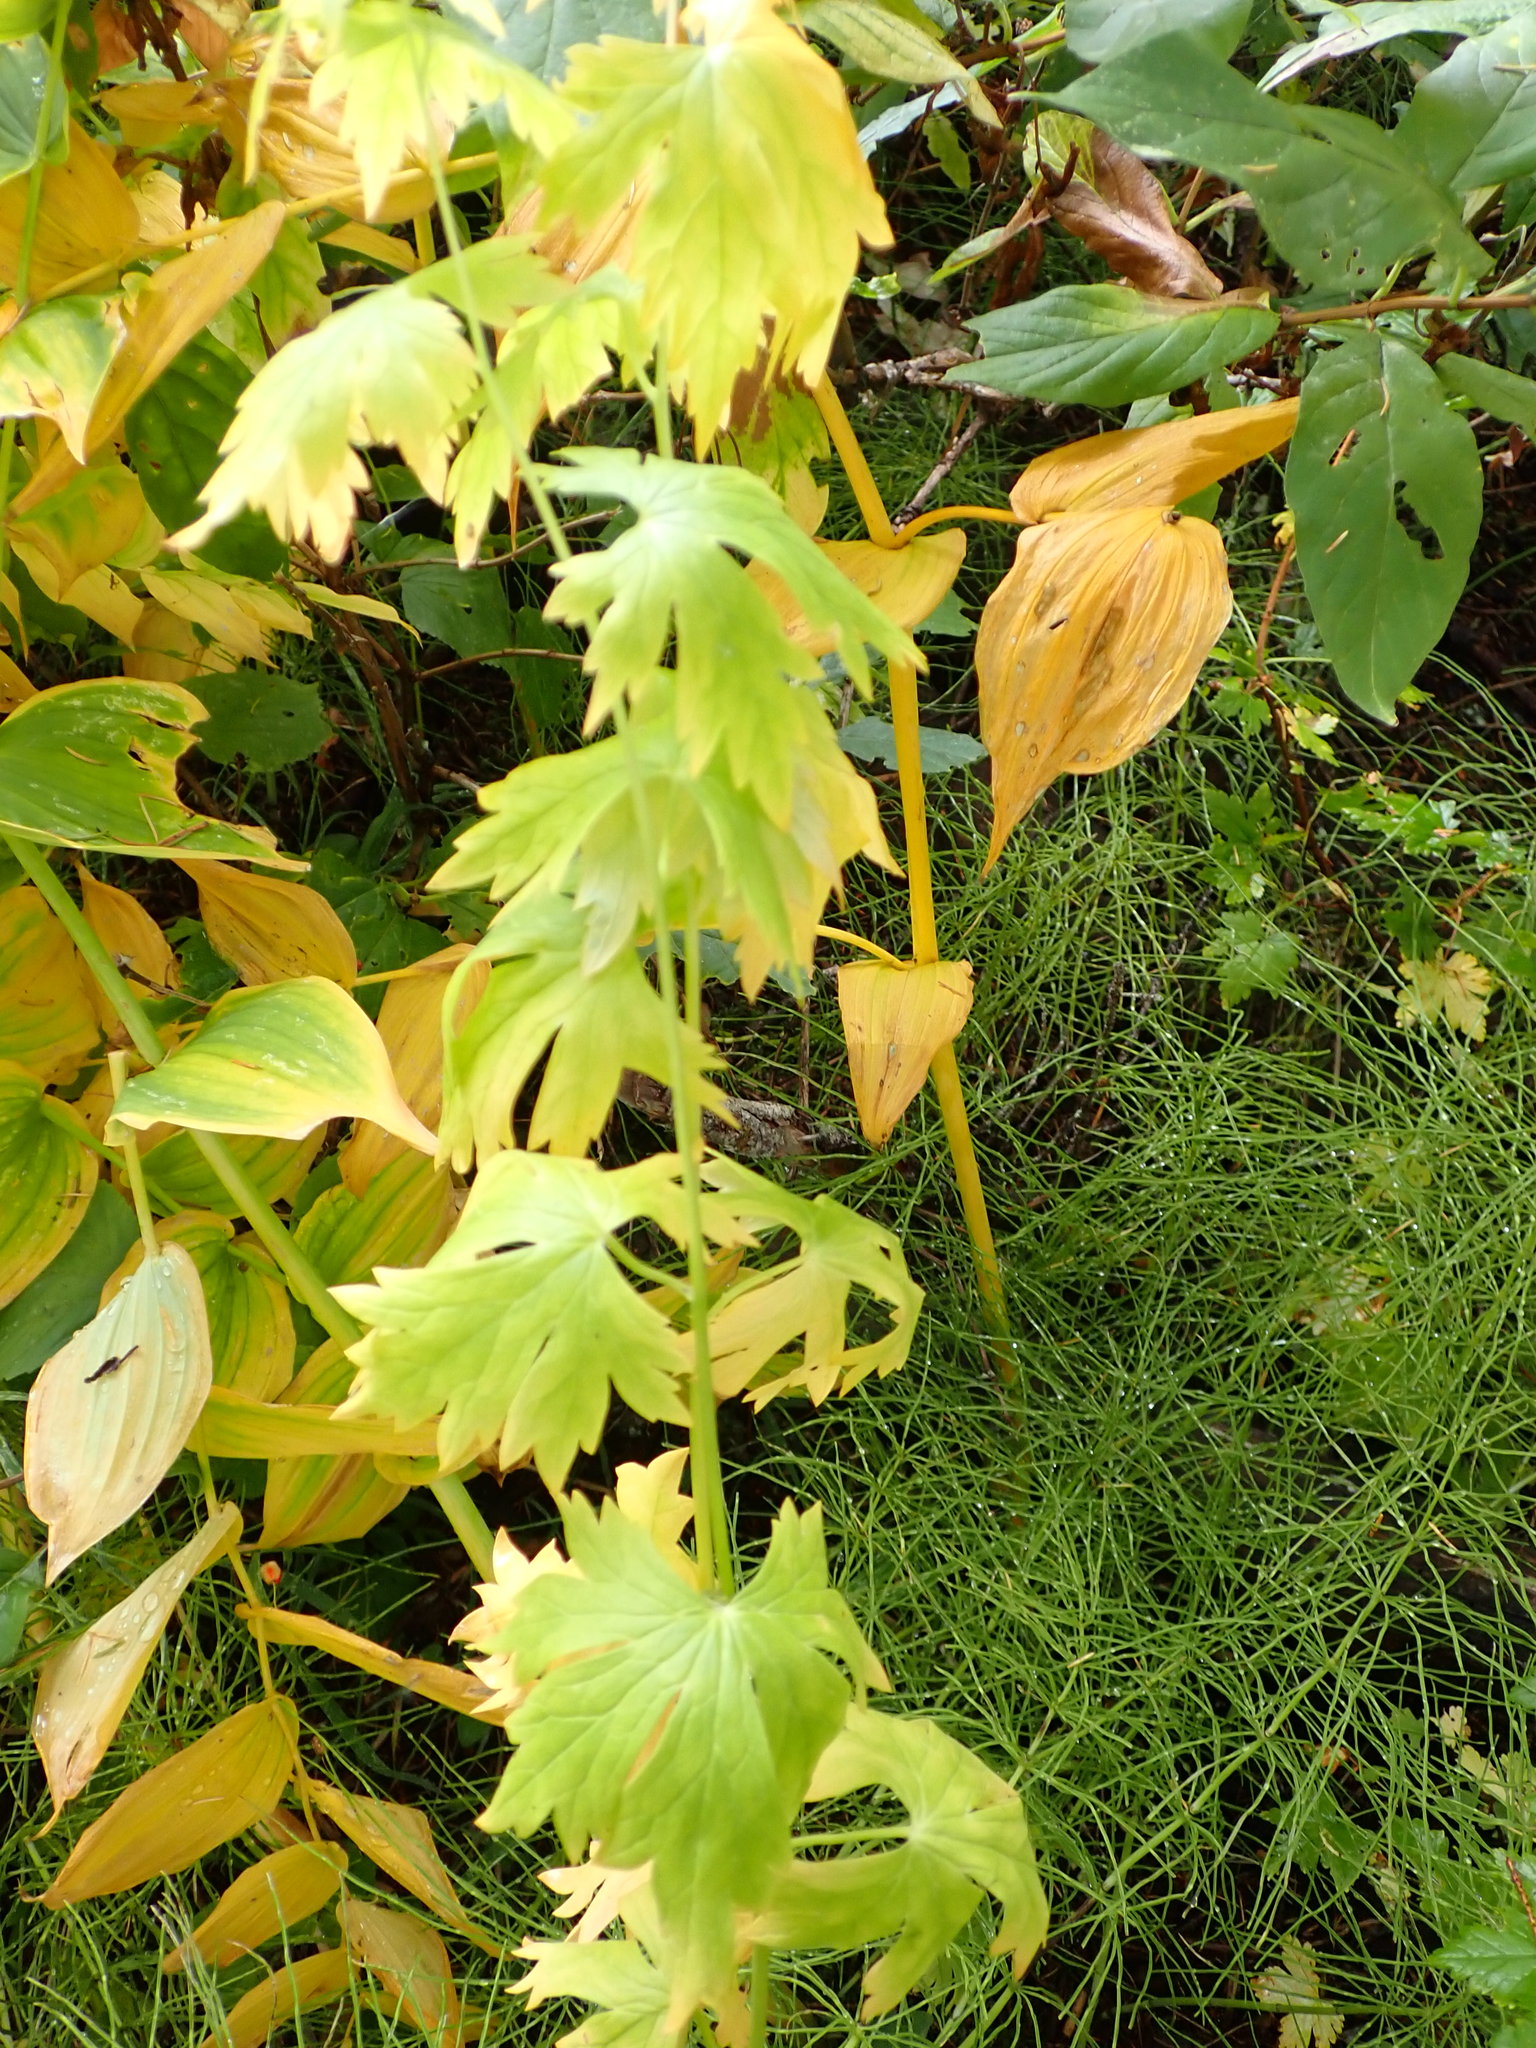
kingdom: Plantae
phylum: Tracheophyta
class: Magnoliopsida
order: Ranunculales
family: Ranunculaceae
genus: Aconitum
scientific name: Aconitum columbianum
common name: Columbia aconite
